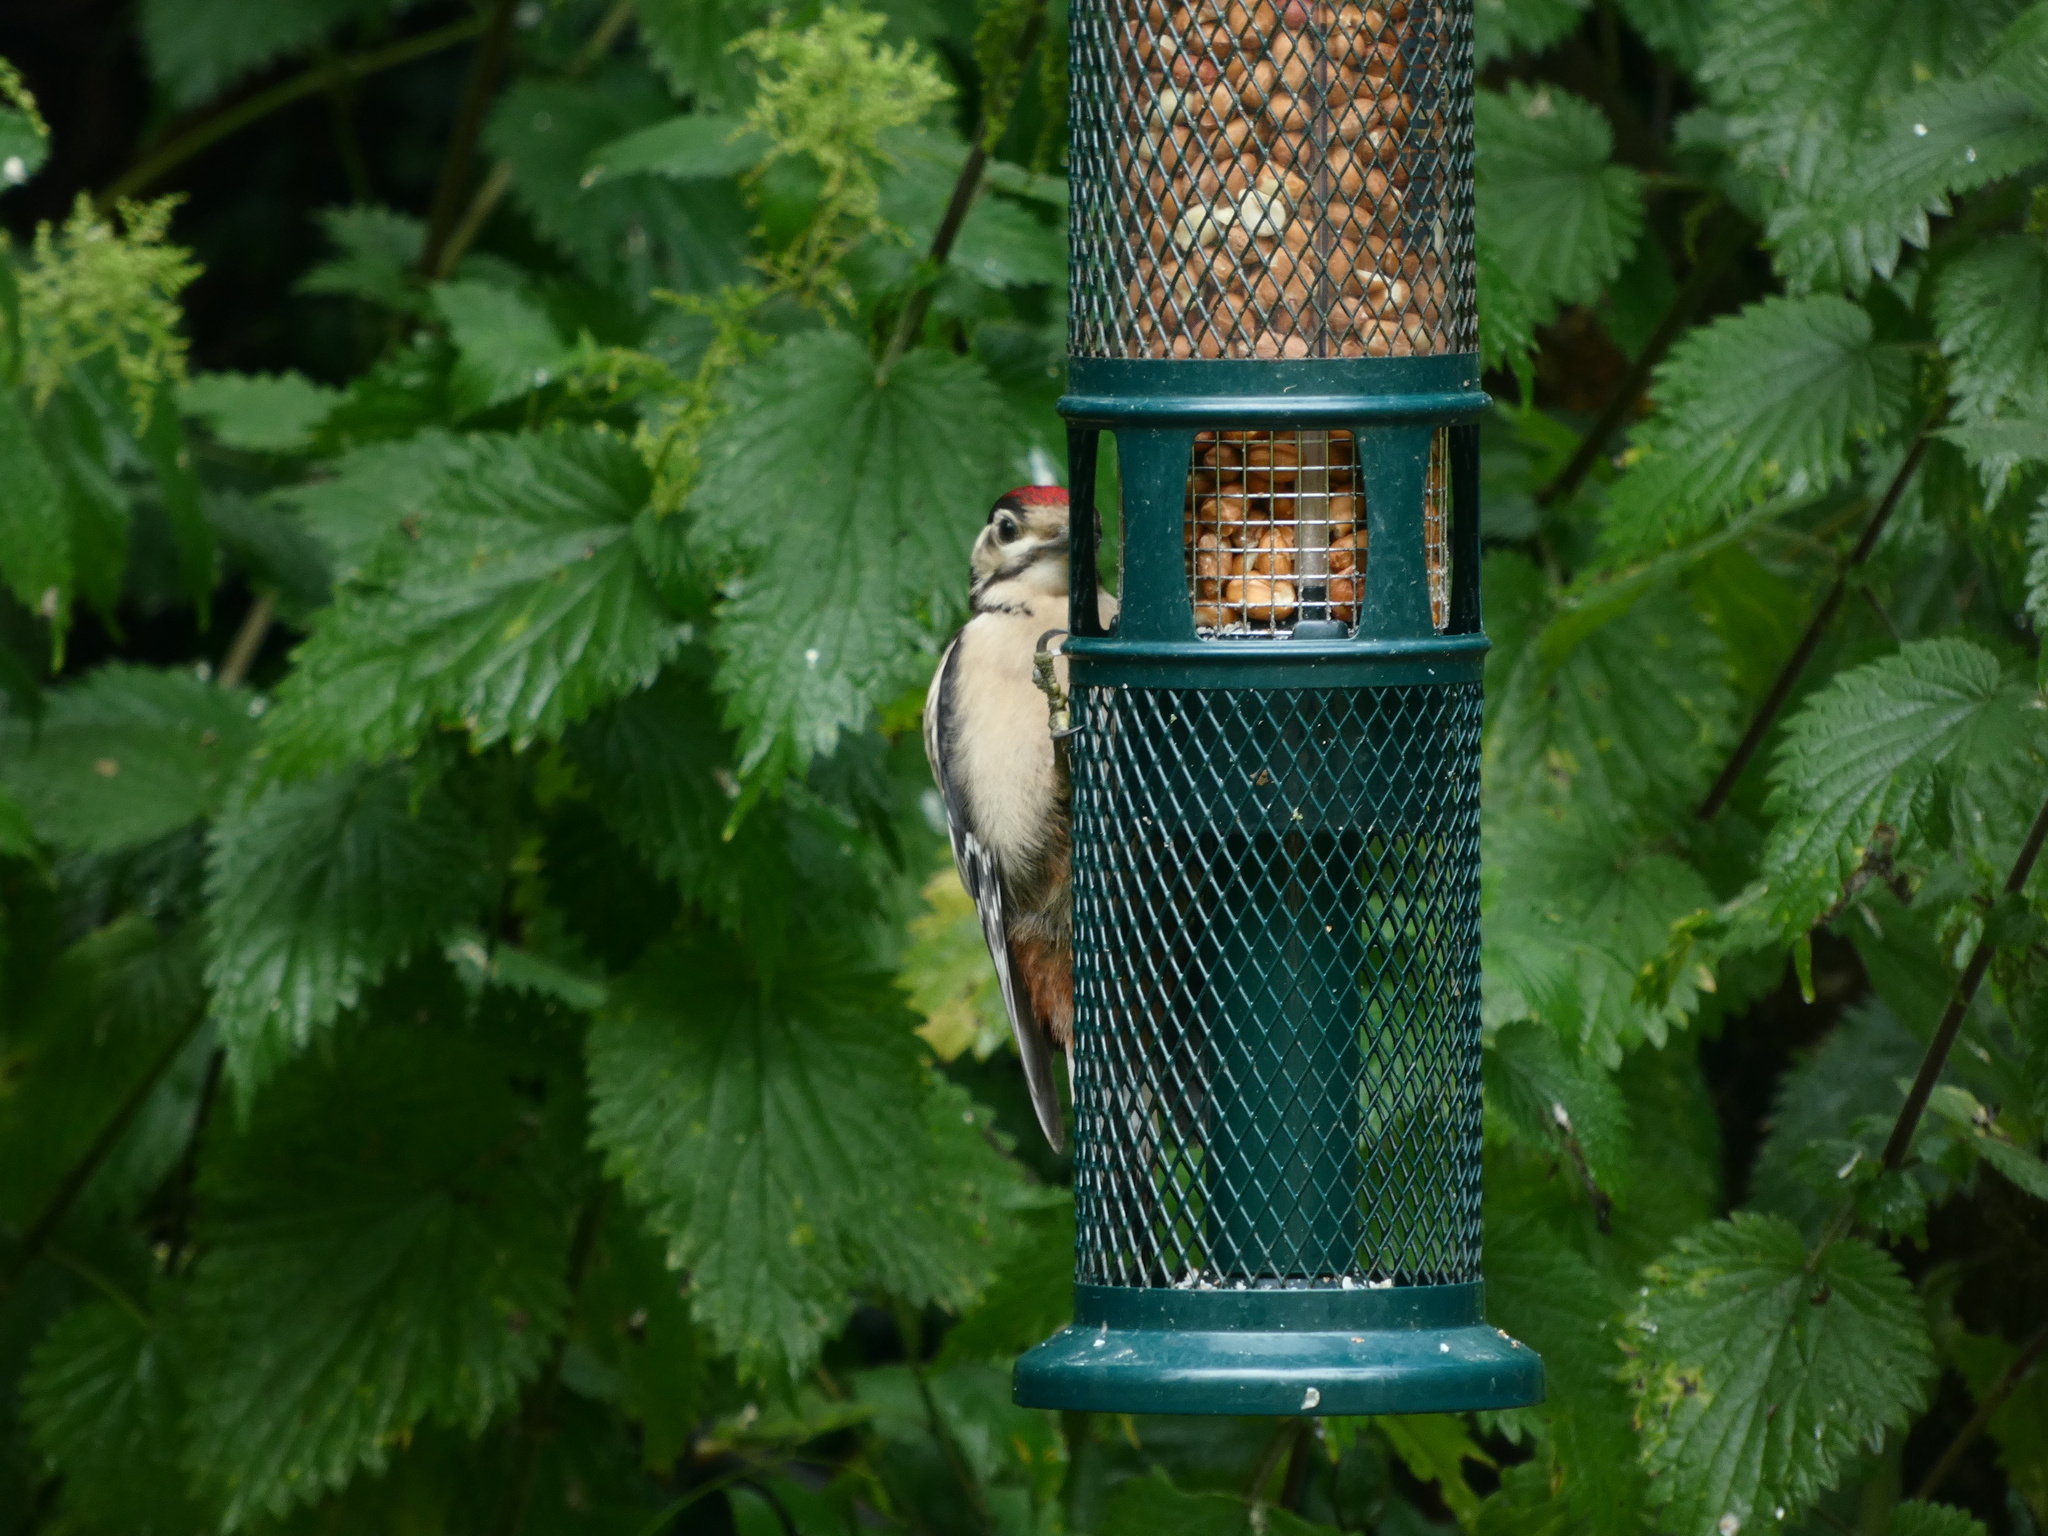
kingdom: Animalia
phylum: Chordata
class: Aves
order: Piciformes
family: Picidae
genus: Dendrocopos
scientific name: Dendrocopos major
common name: Great spotted woodpecker
